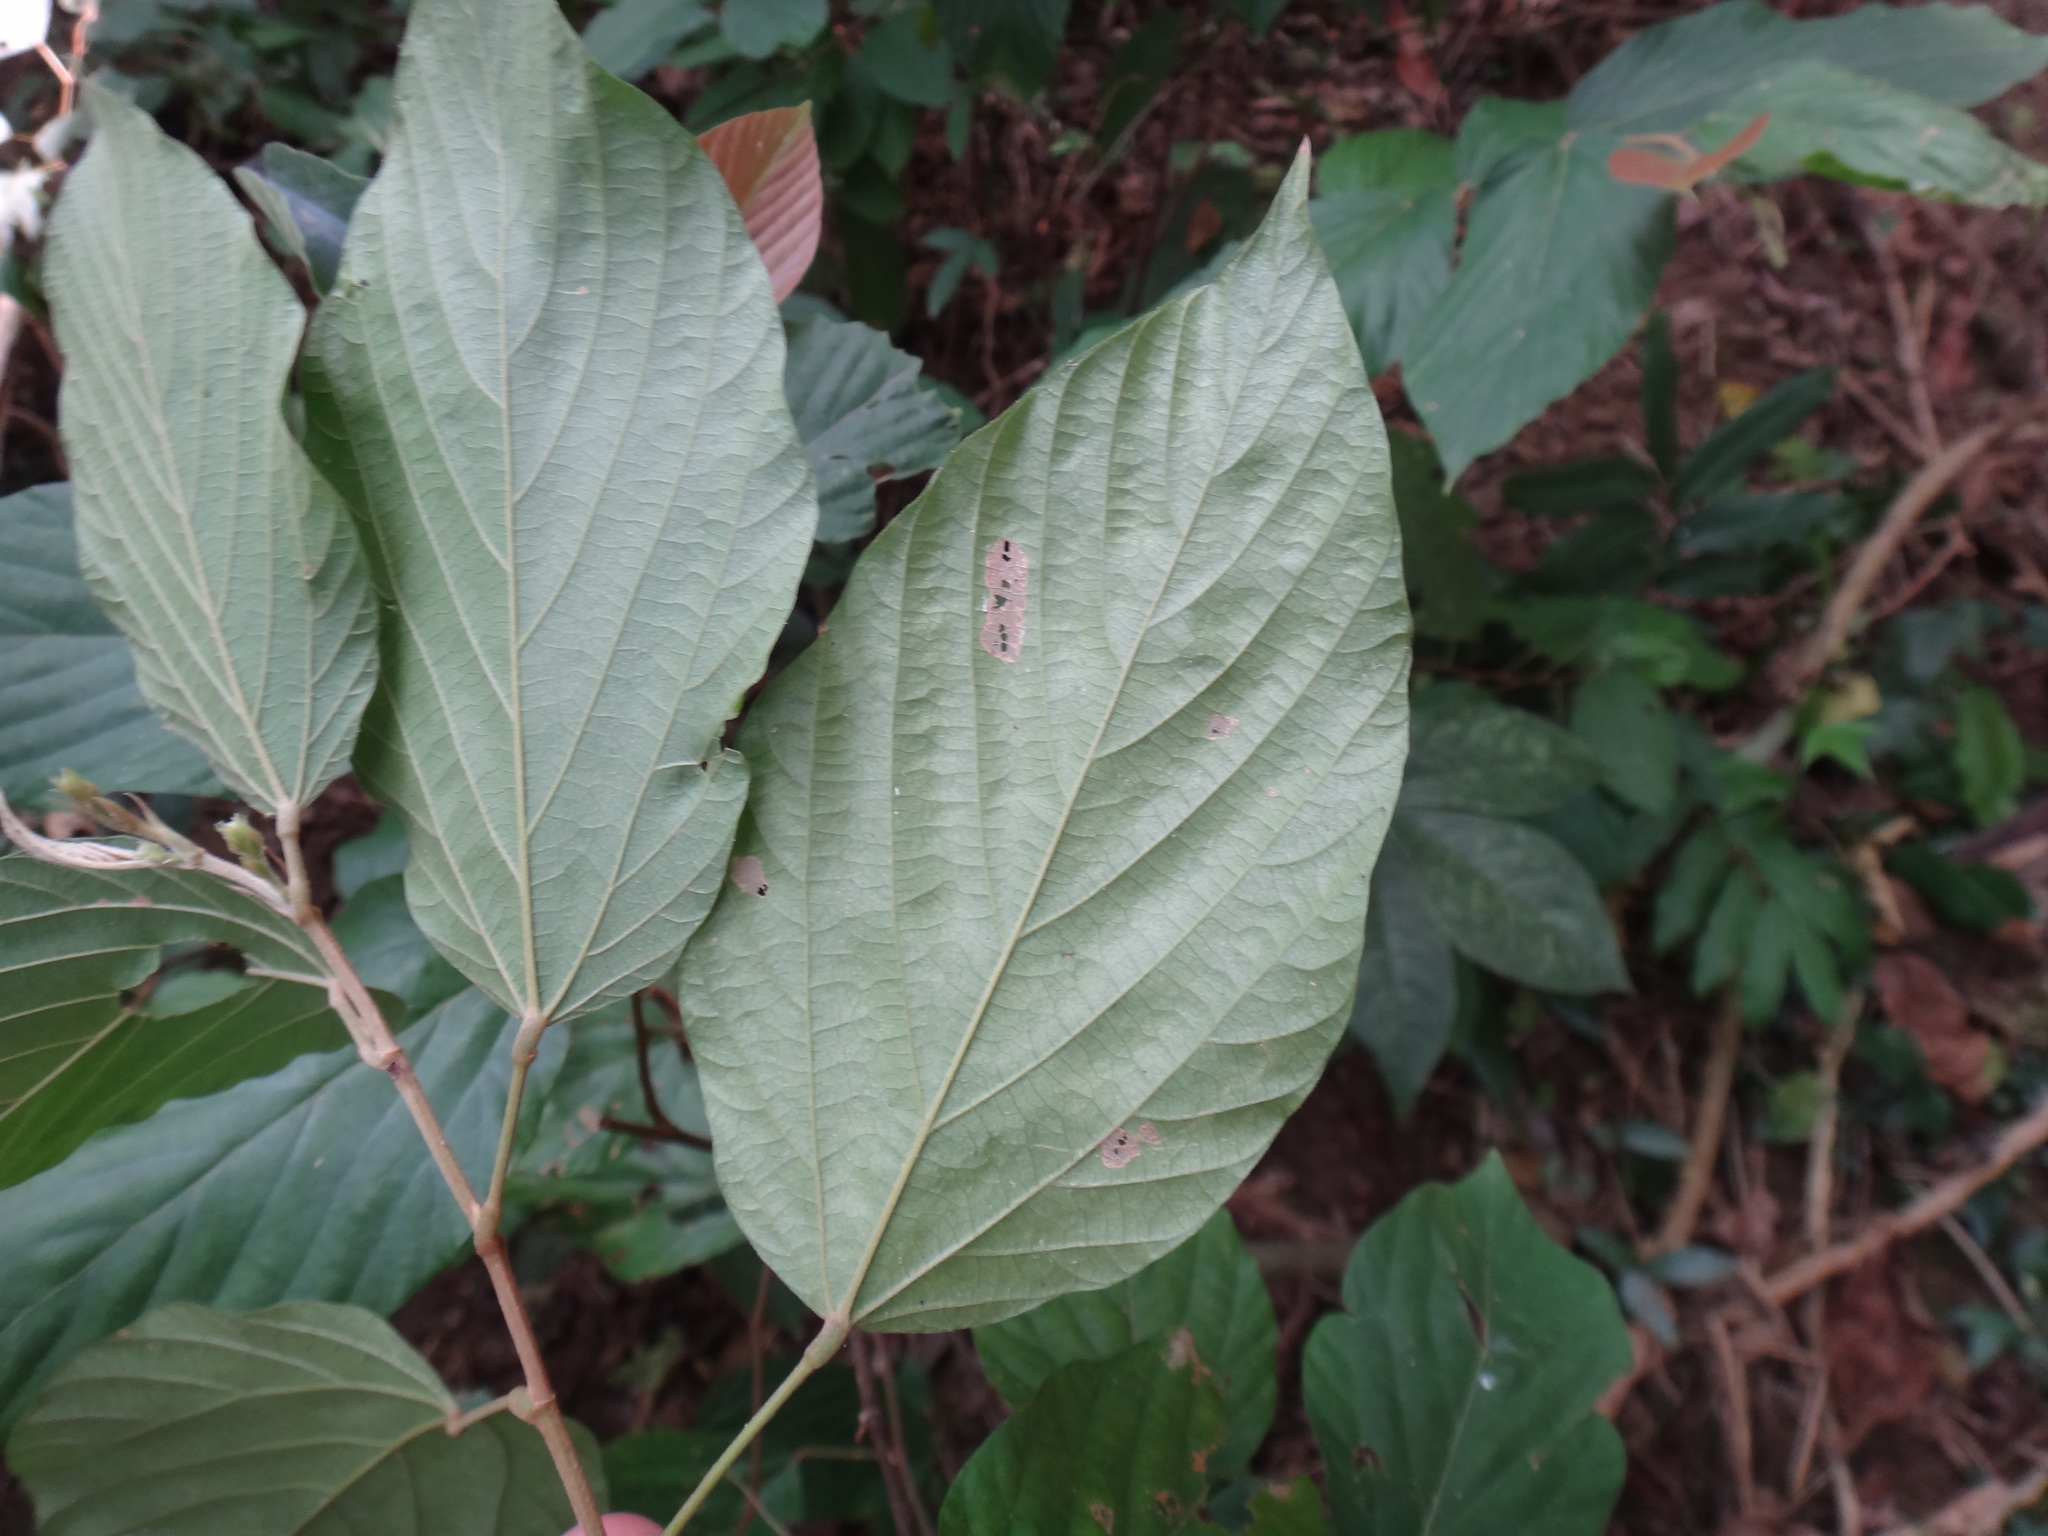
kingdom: Plantae
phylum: Tracheophyta
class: Magnoliopsida
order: Fabales
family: Fabaceae
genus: Flemingia
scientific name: Flemingia strobilifera
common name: Wild hops
